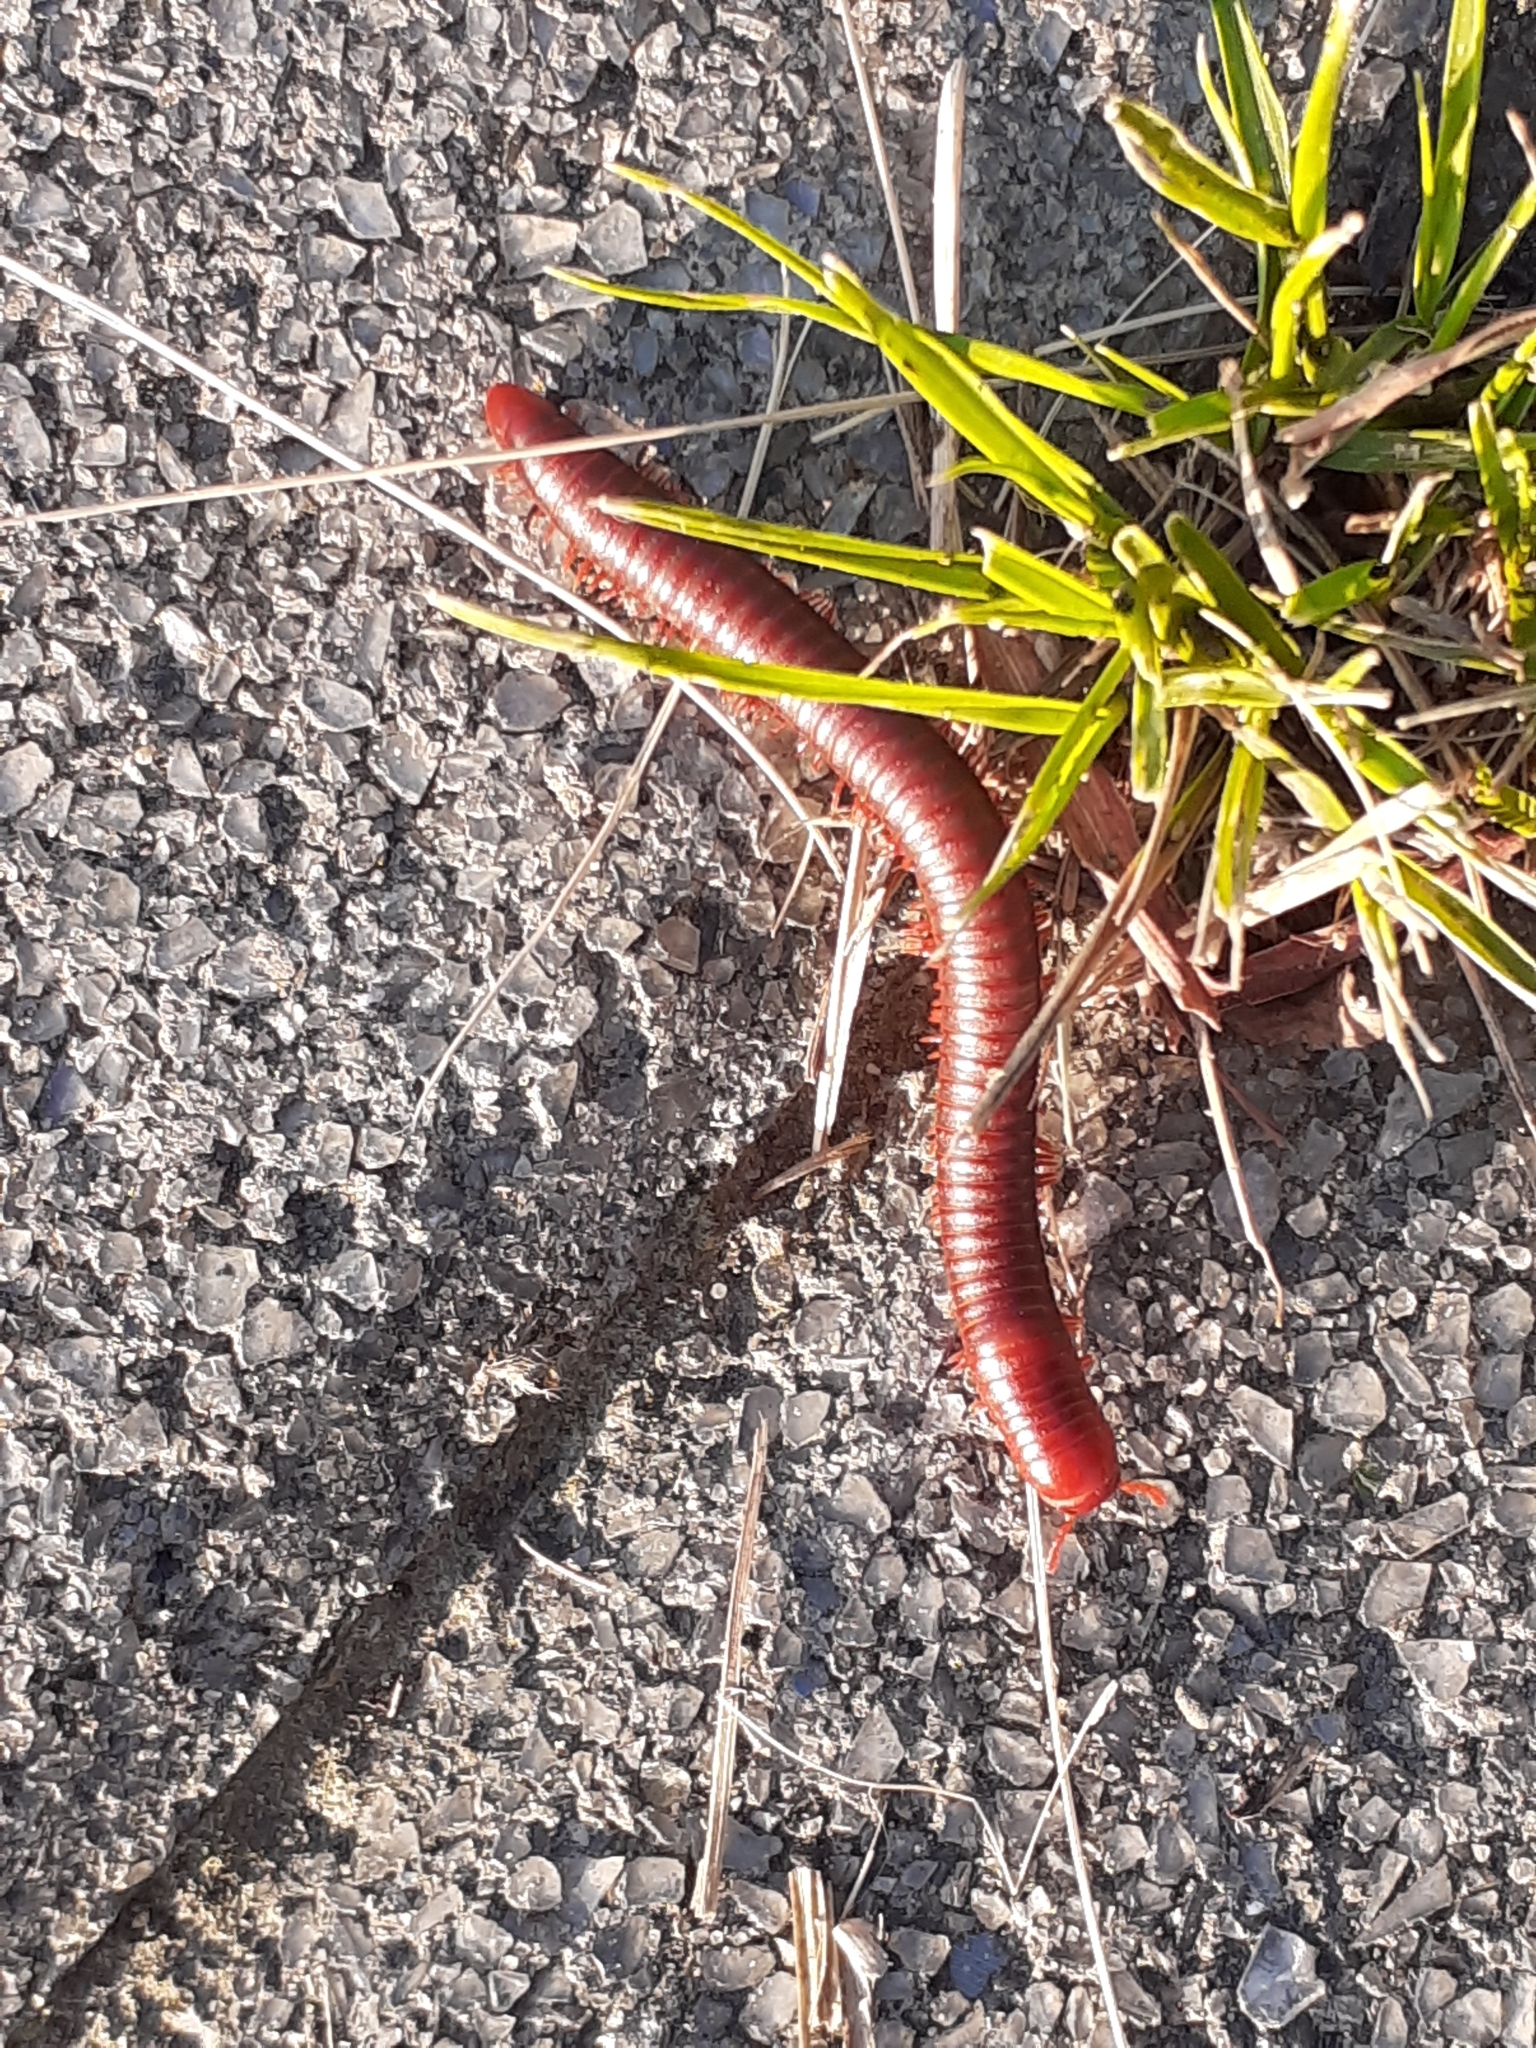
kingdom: Animalia
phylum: Arthropoda
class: Diplopoda
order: Spirobolida
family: Pachybolidae
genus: Trigoniulus
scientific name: Trigoniulus corallinus
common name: Millipede
